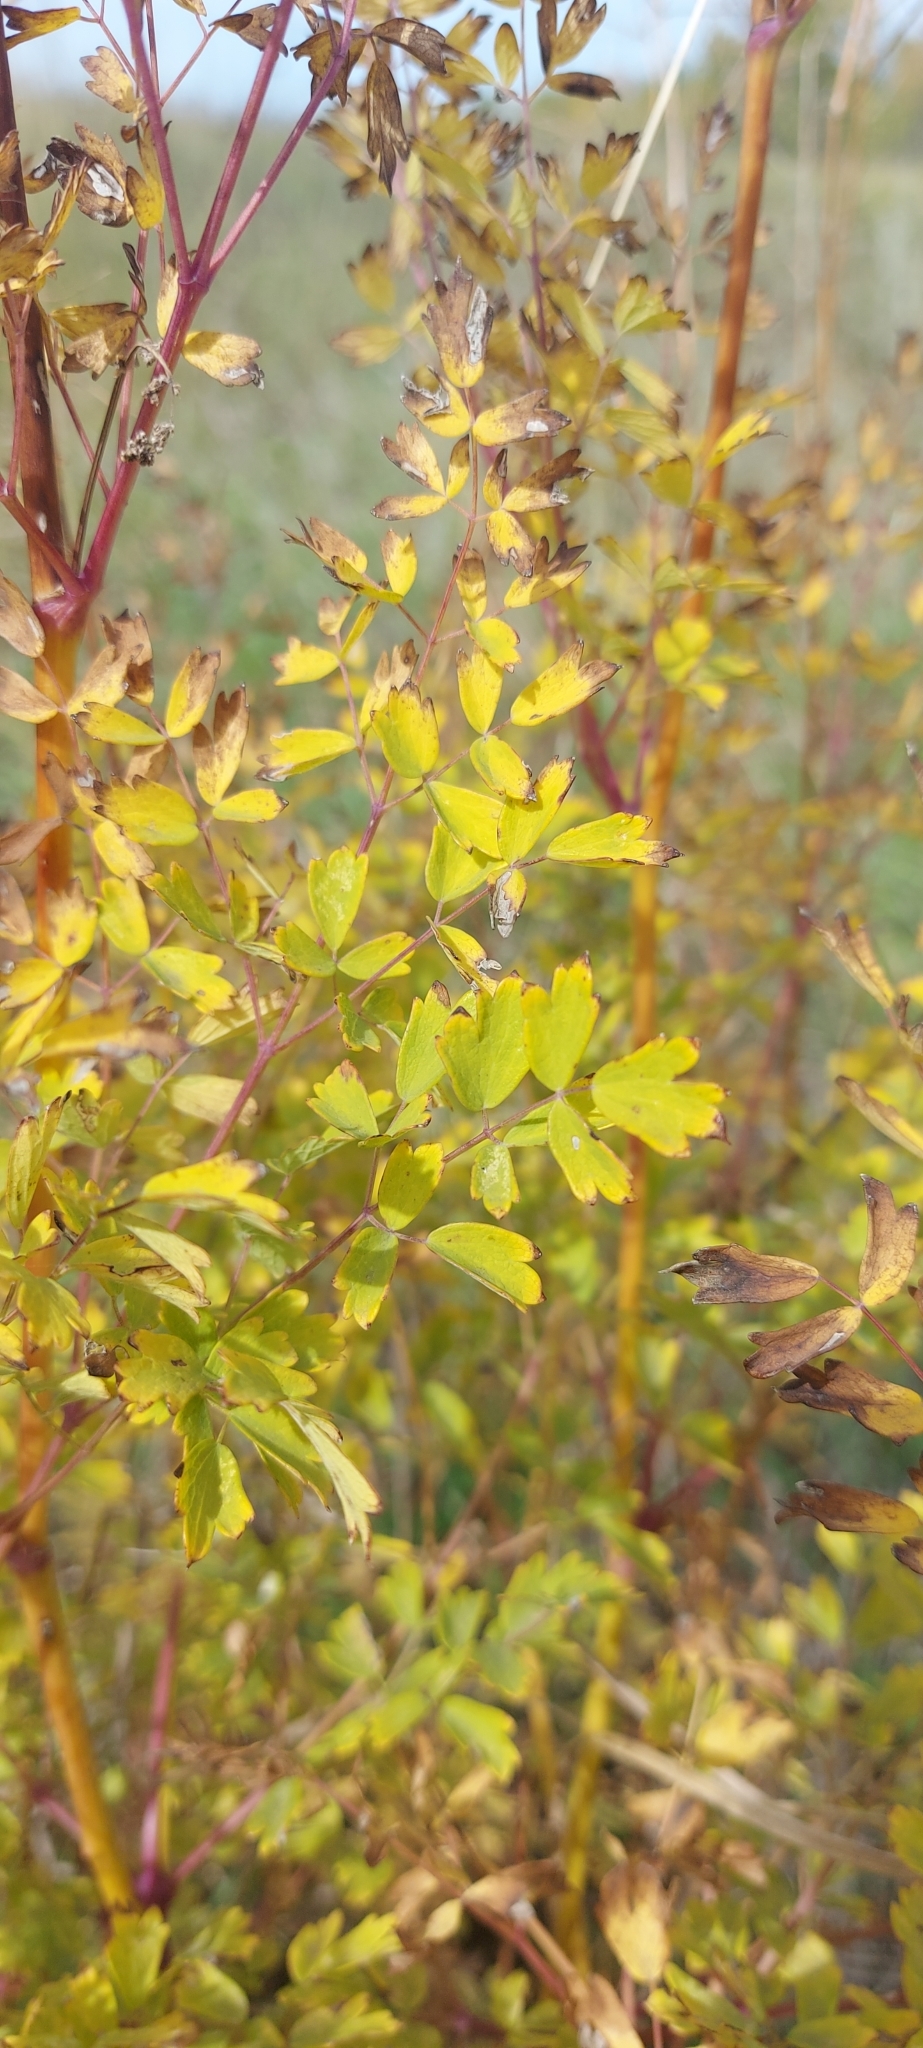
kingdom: Plantae
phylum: Tracheophyta
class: Magnoliopsida
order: Ranunculales
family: Ranunculaceae
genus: Thalictrum
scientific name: Thalictrum minus
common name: Lesser meadow-rue
